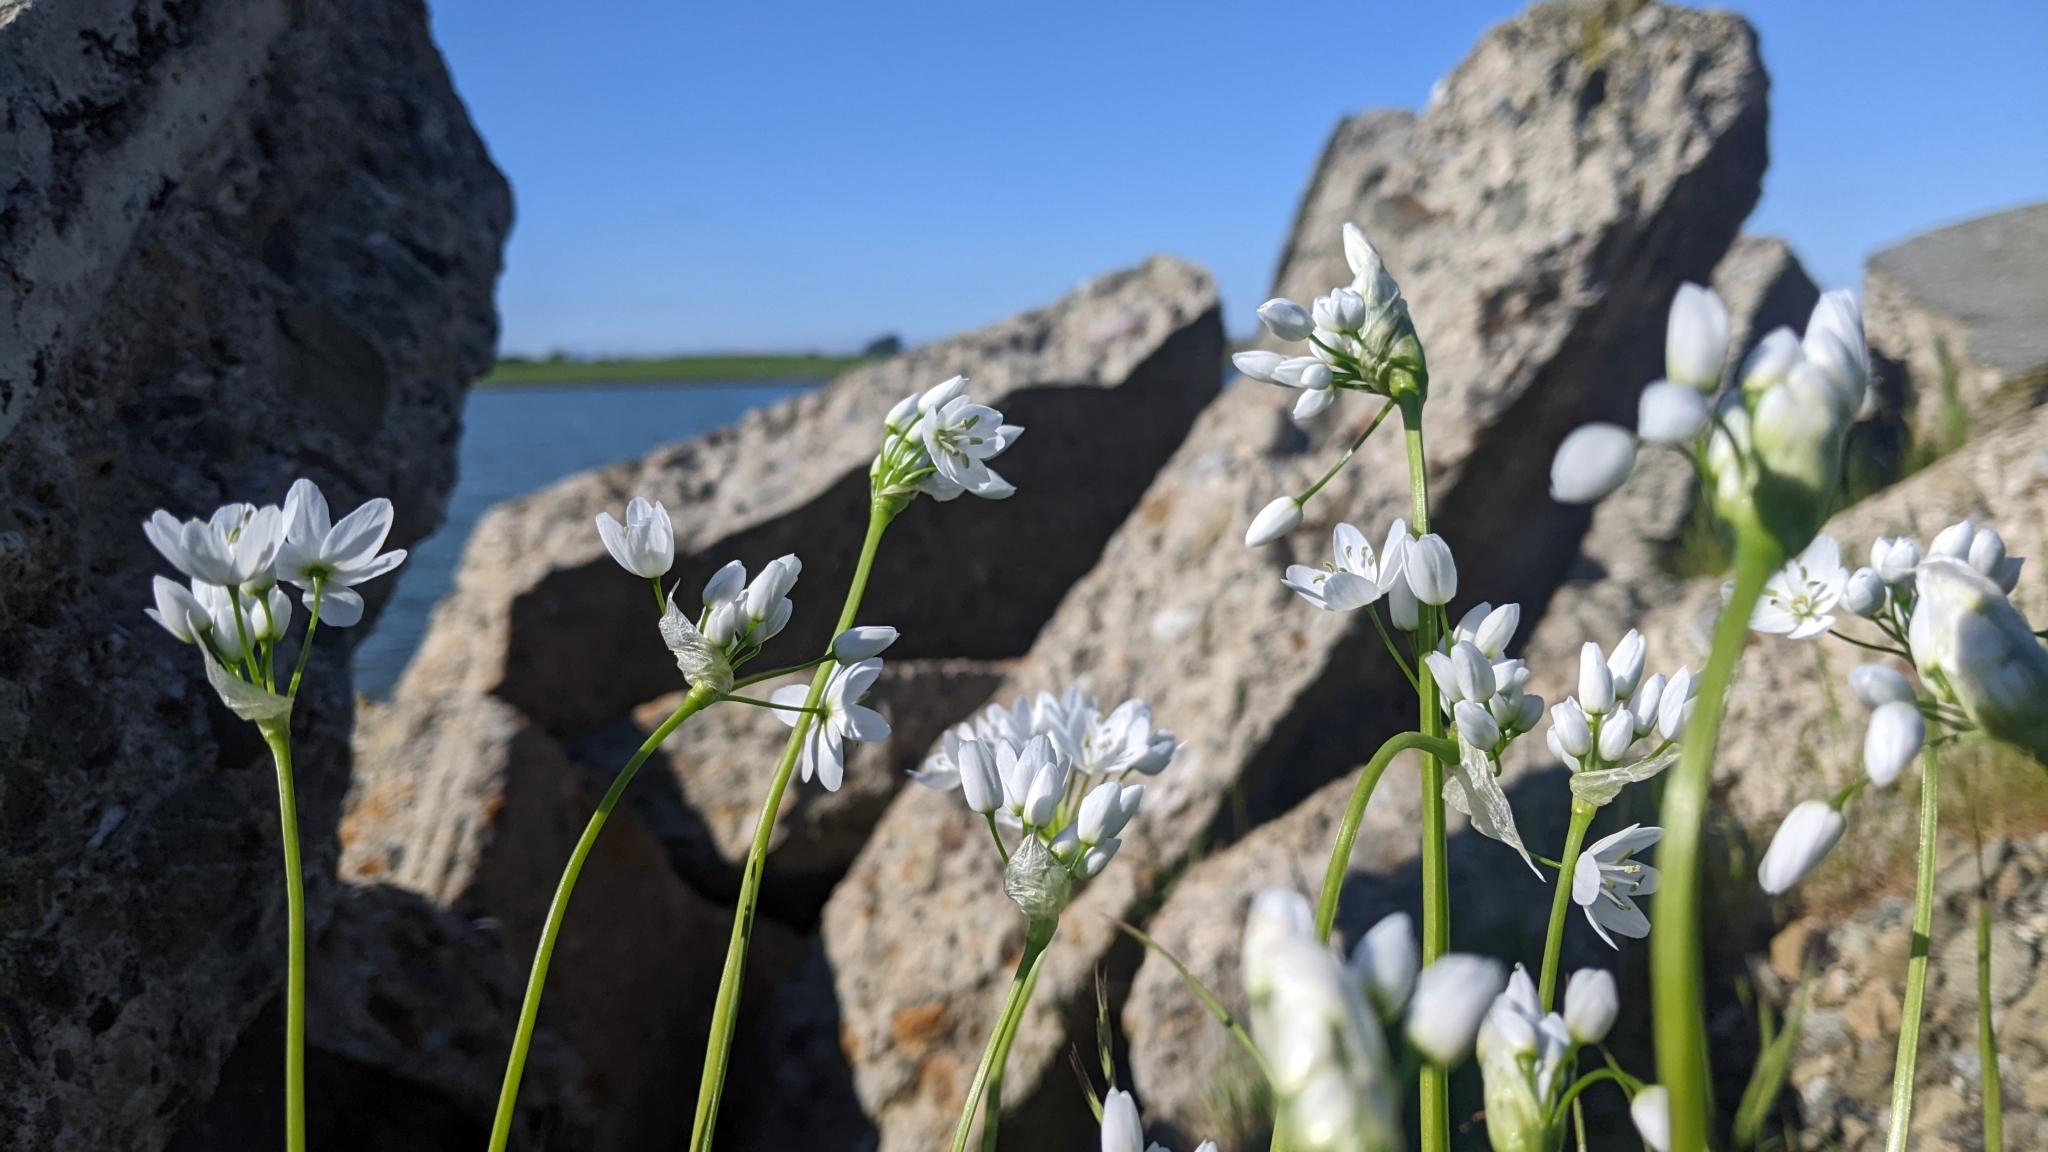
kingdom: Plantae
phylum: Tracheophyta
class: Liliopsida
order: Asparagales
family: Amaryllidaceae
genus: Allium
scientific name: Allium neapolitanum
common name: Neapolitan garlic
